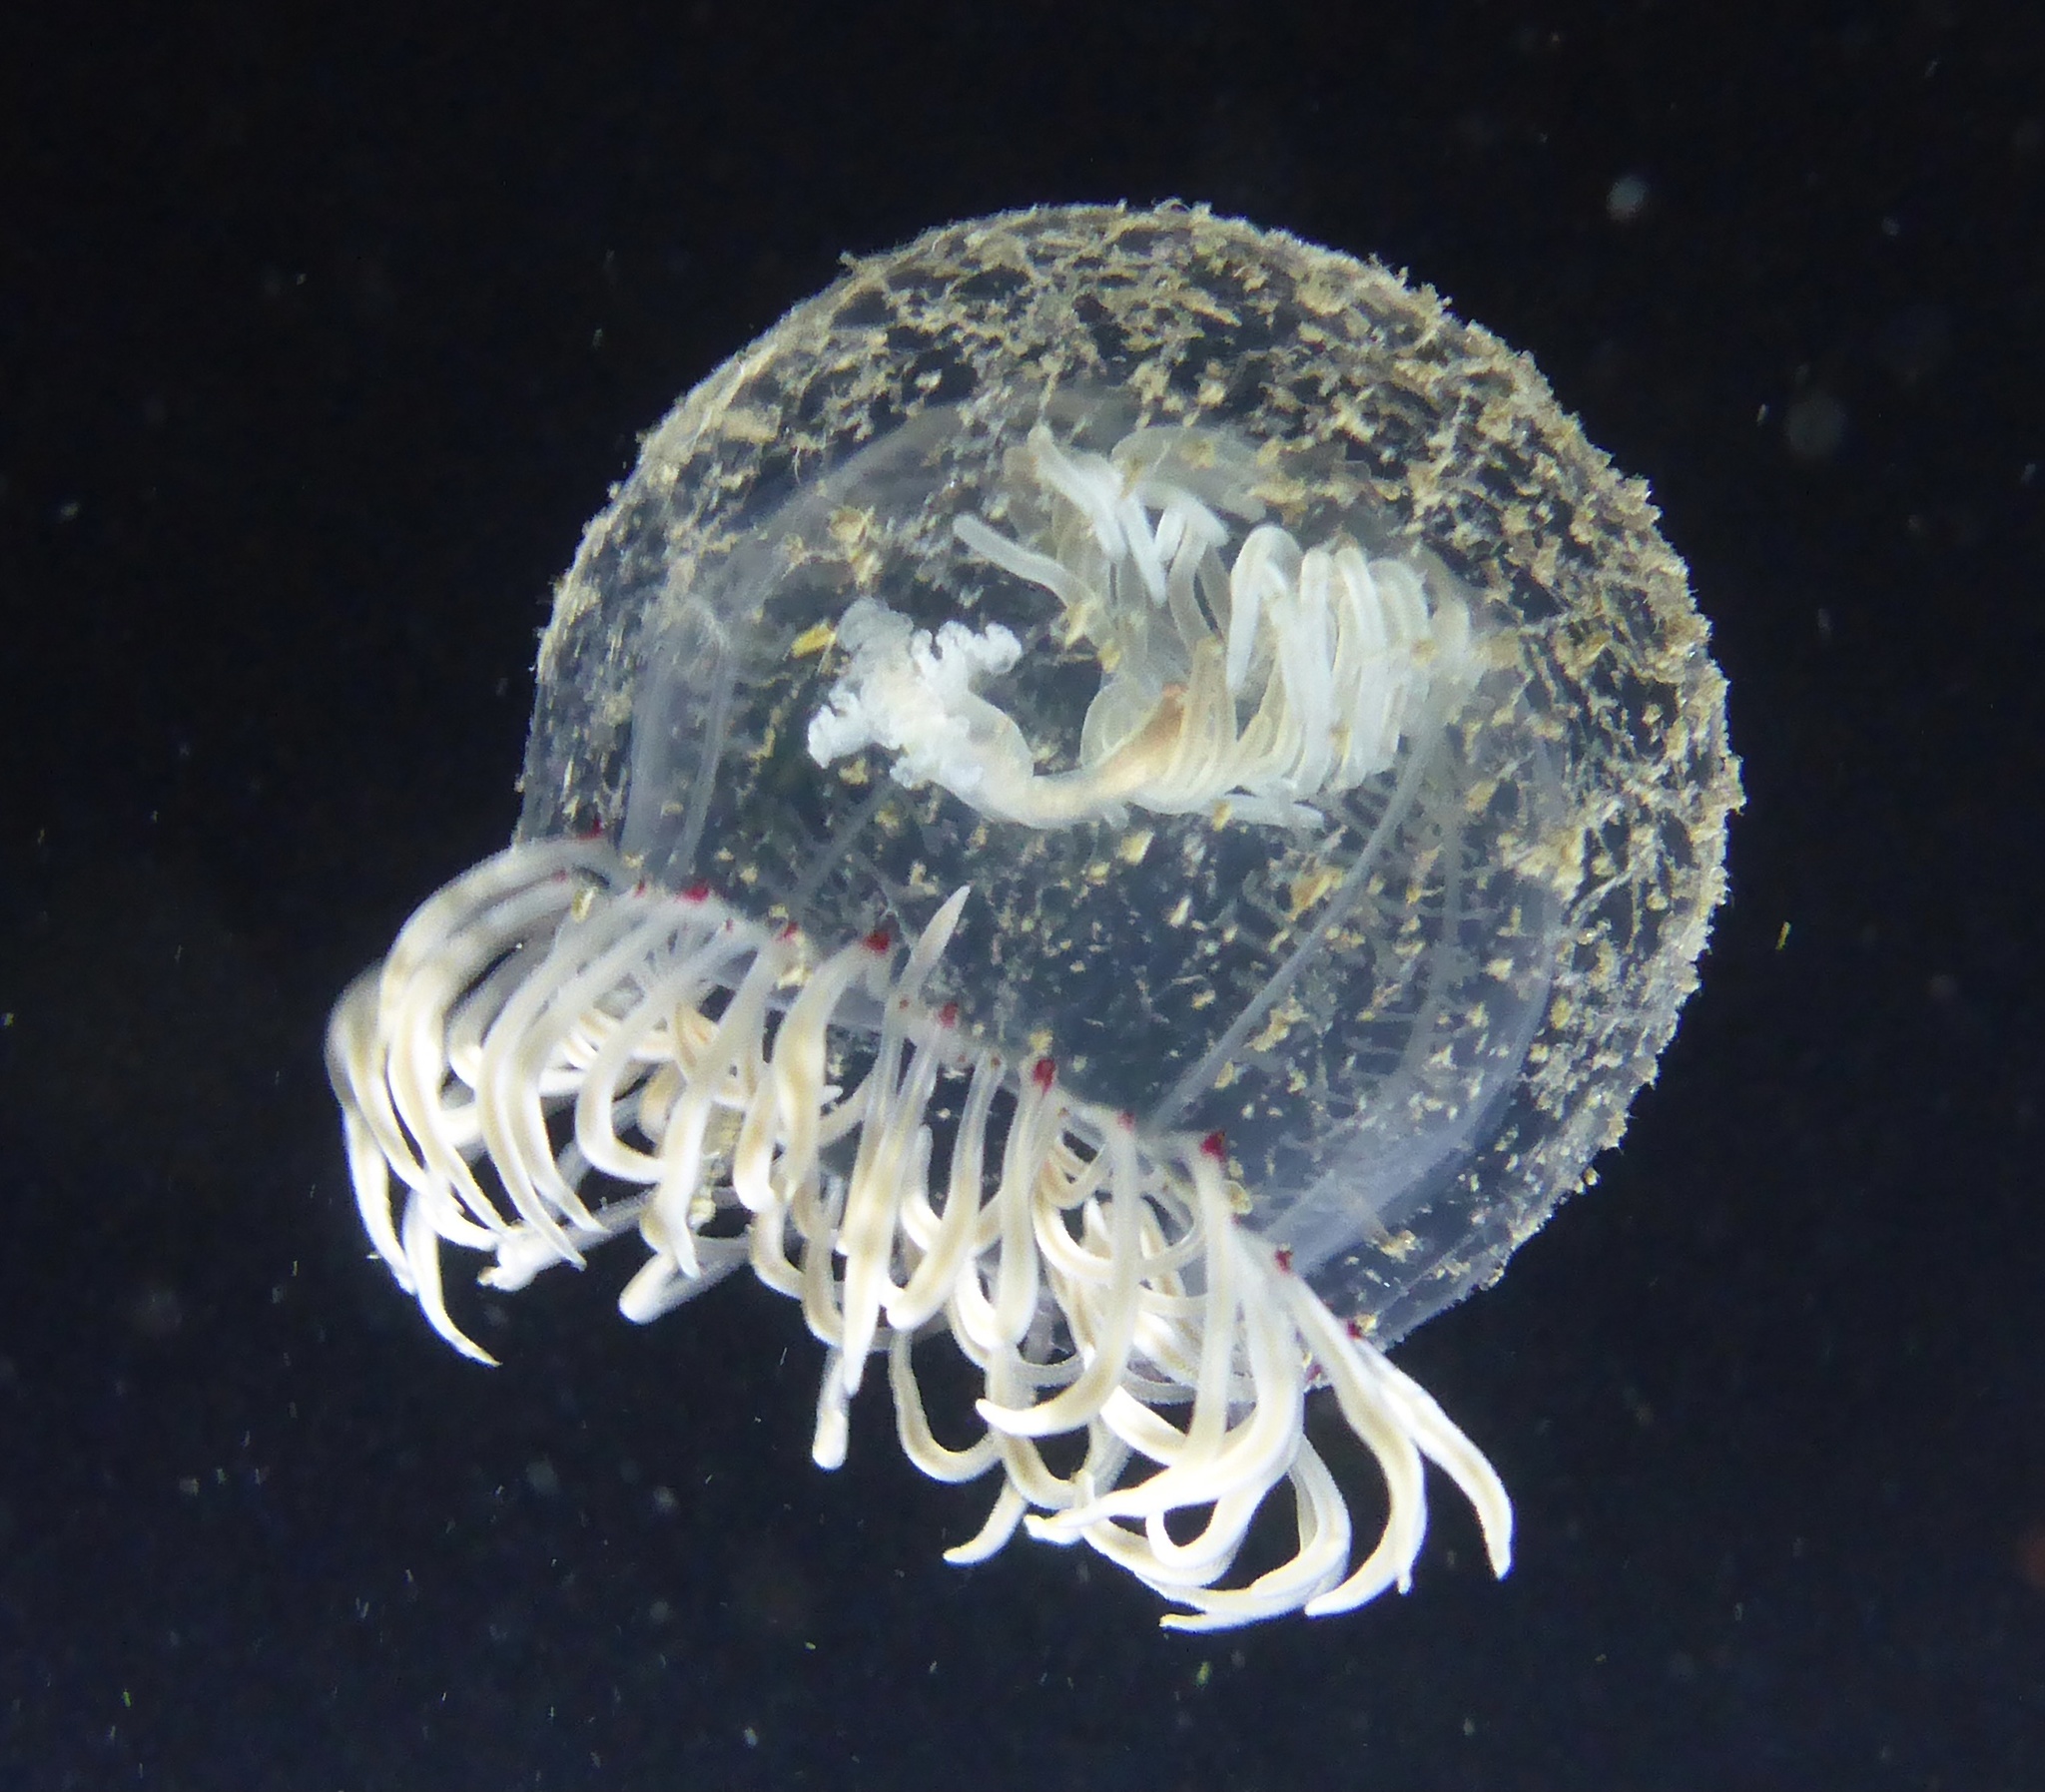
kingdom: Animalia
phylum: Cnidaria
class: Hydrozoa
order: Anthoathecata
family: Corynidae
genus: Polyorchis
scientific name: Polyorchis penicillatus
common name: Penicillate jellyfish
